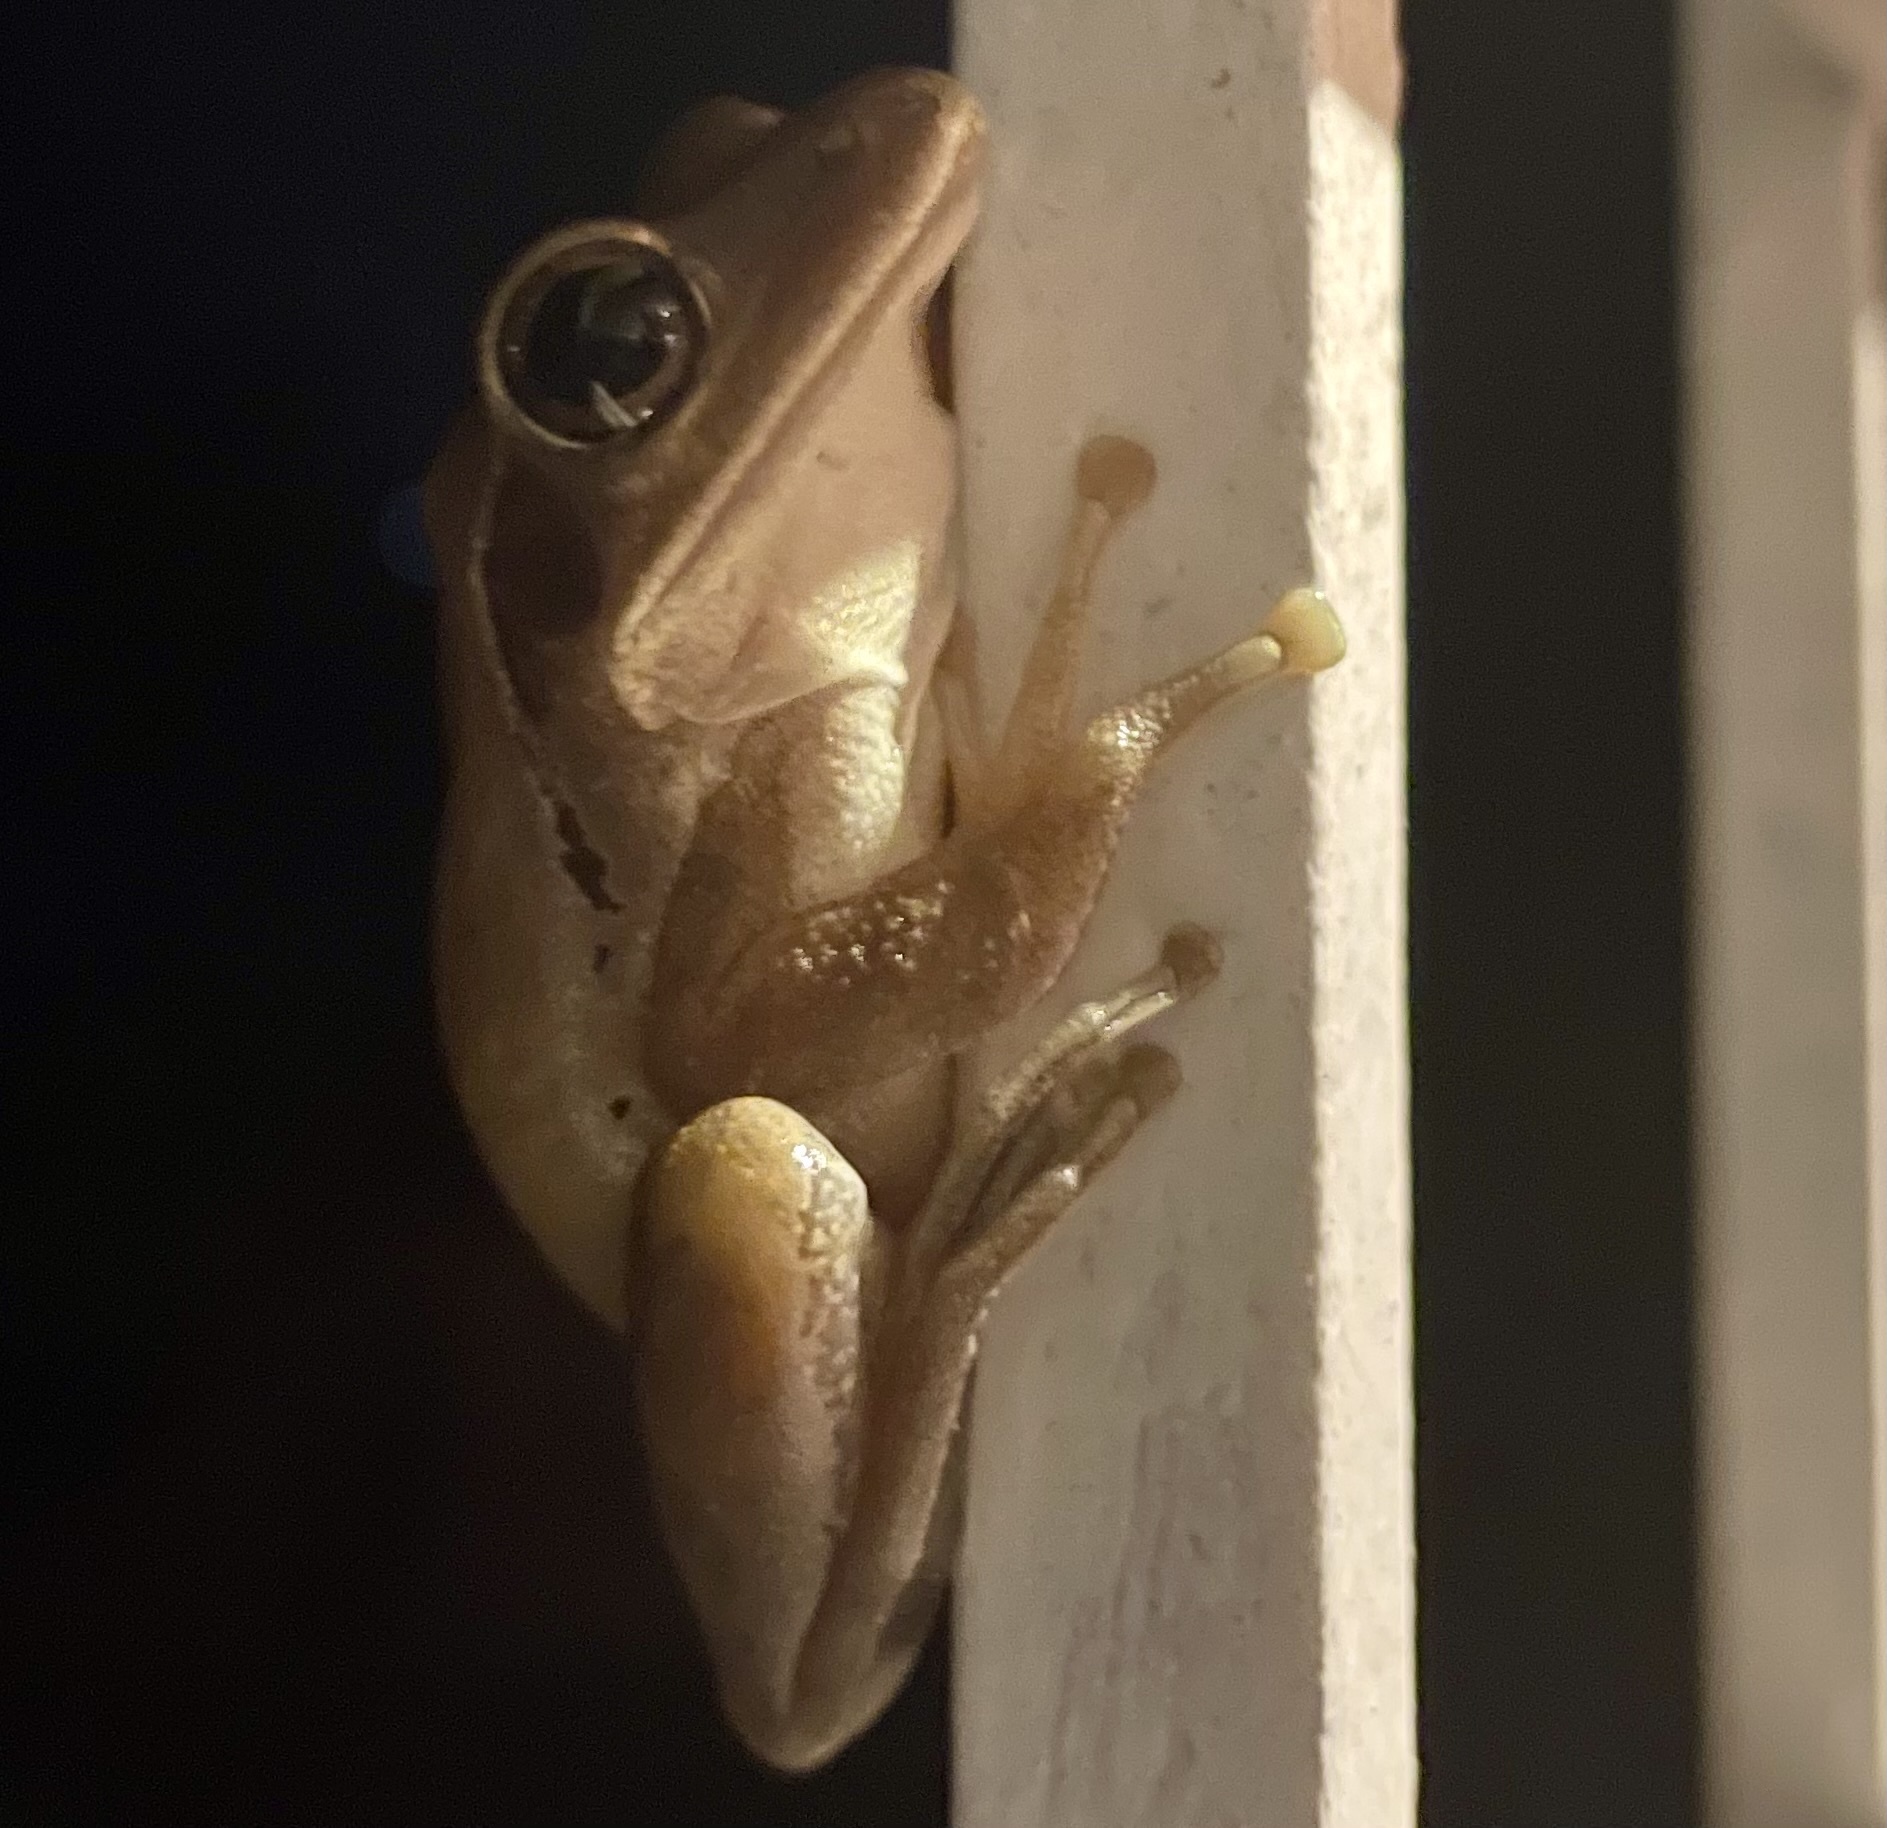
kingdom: Animalia
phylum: Chordata
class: Amphibia
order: Anura
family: Rhacophoridae
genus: Polypedates
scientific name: Polypedates maculatus
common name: Himalayan tree frog
